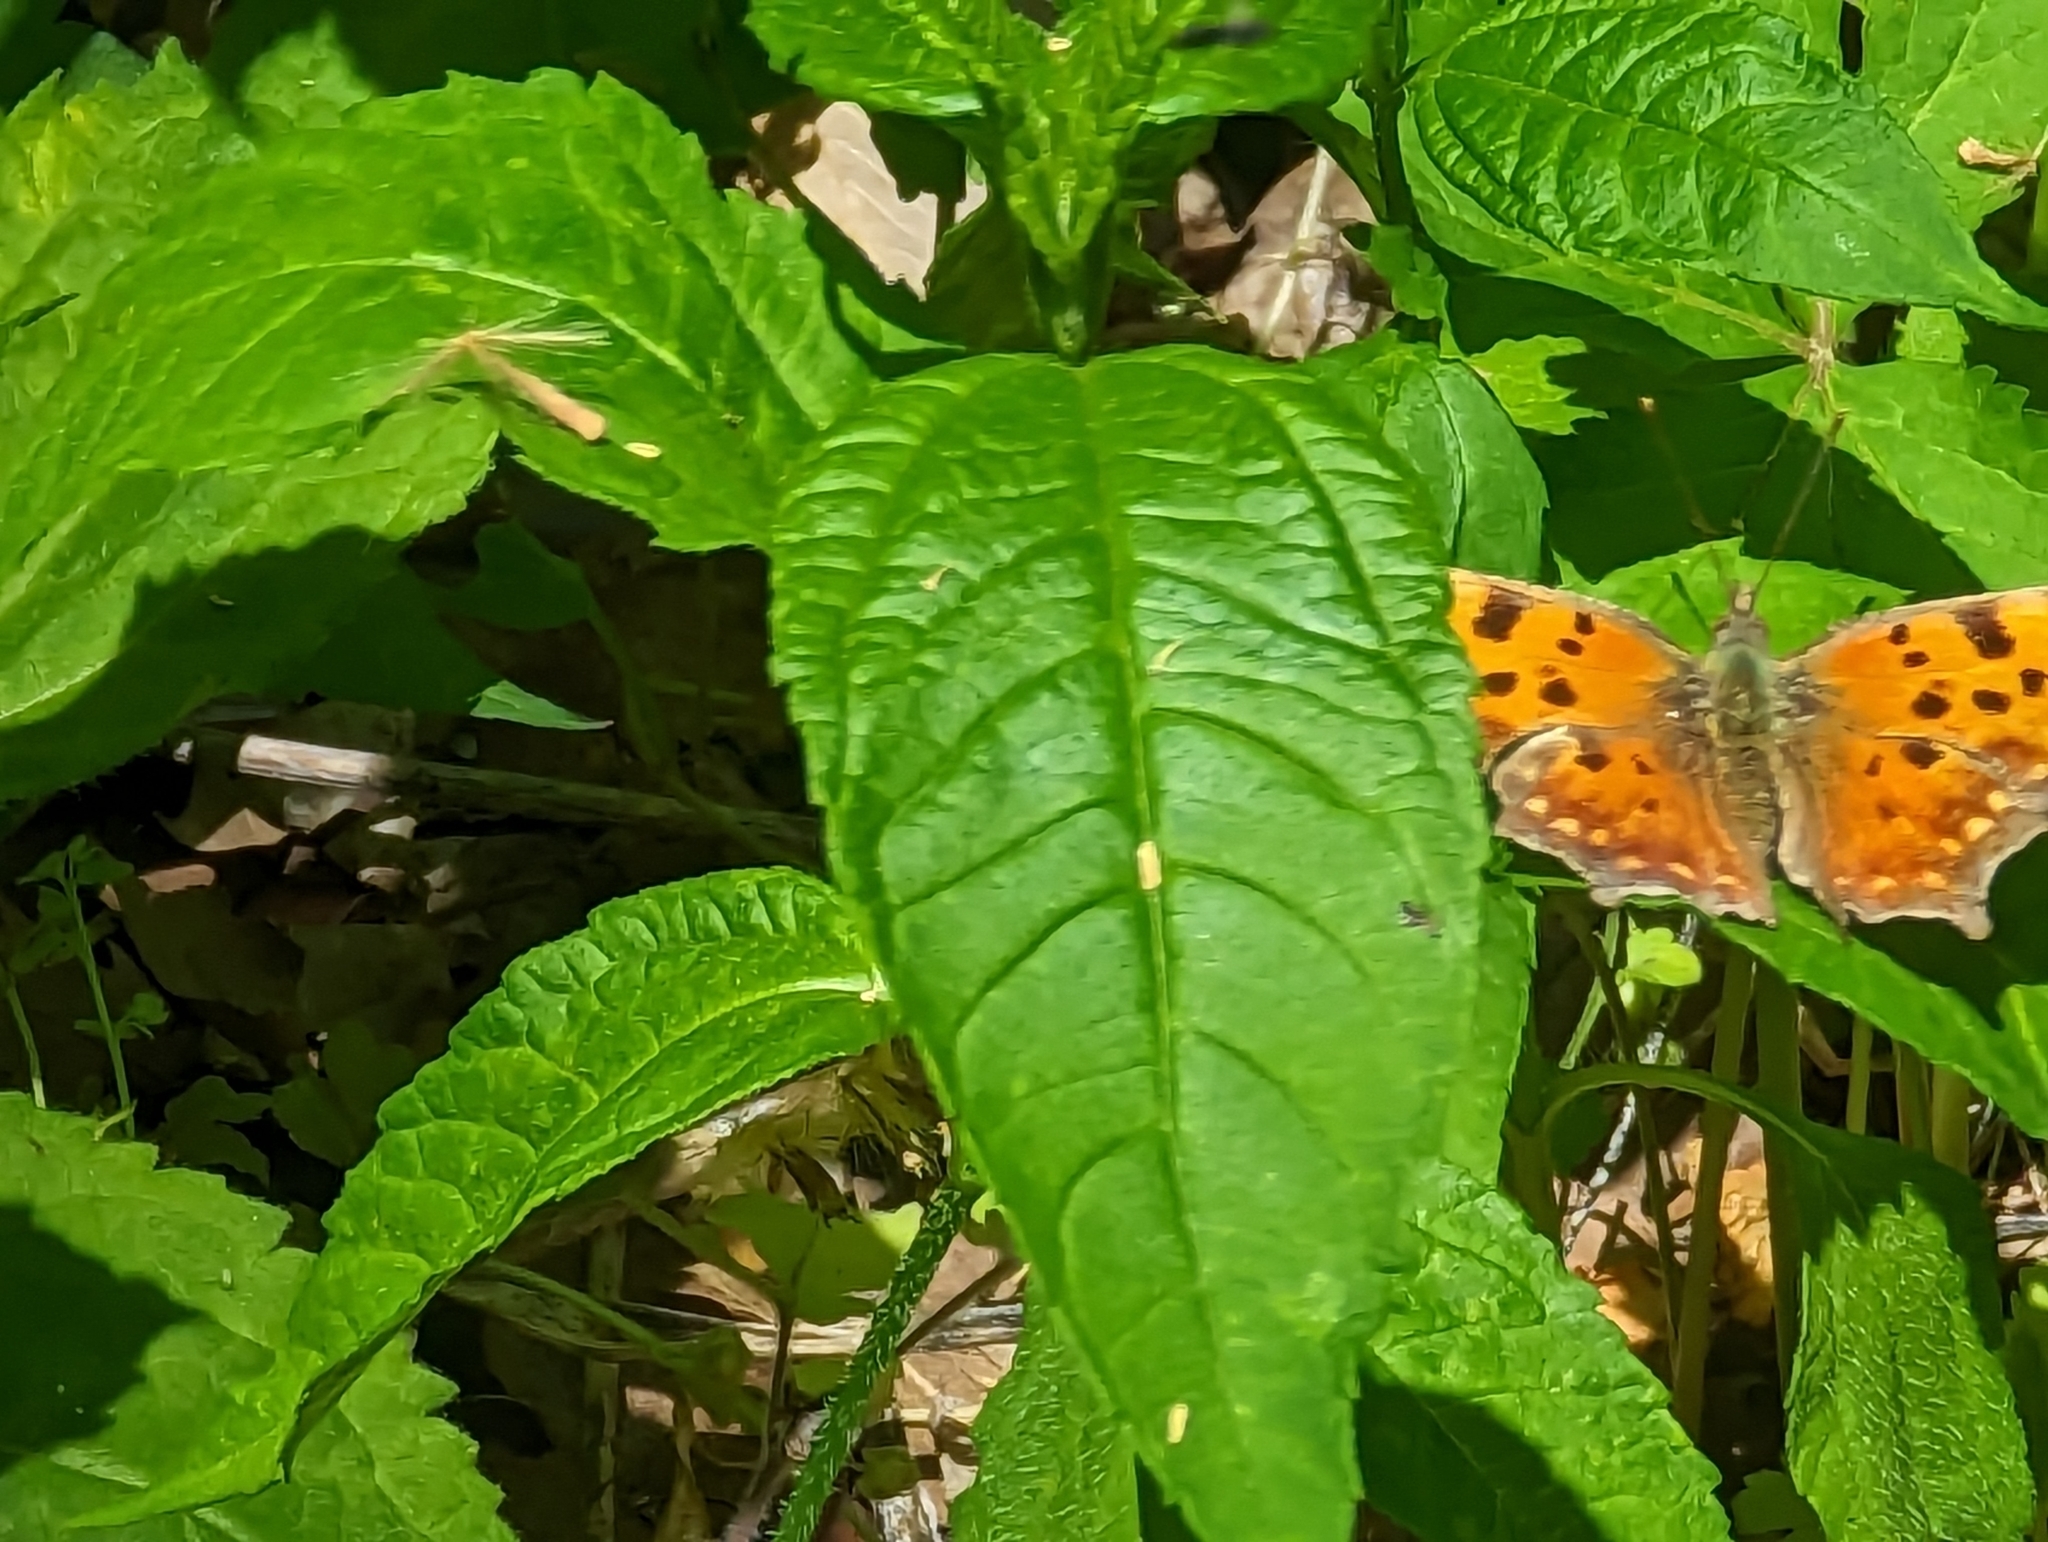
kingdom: Animalia
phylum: Arthropoda
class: Insecta
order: Lepidoptera
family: Nymphalidae
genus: Polygonia
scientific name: Polygonia comma
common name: Eastern comma
